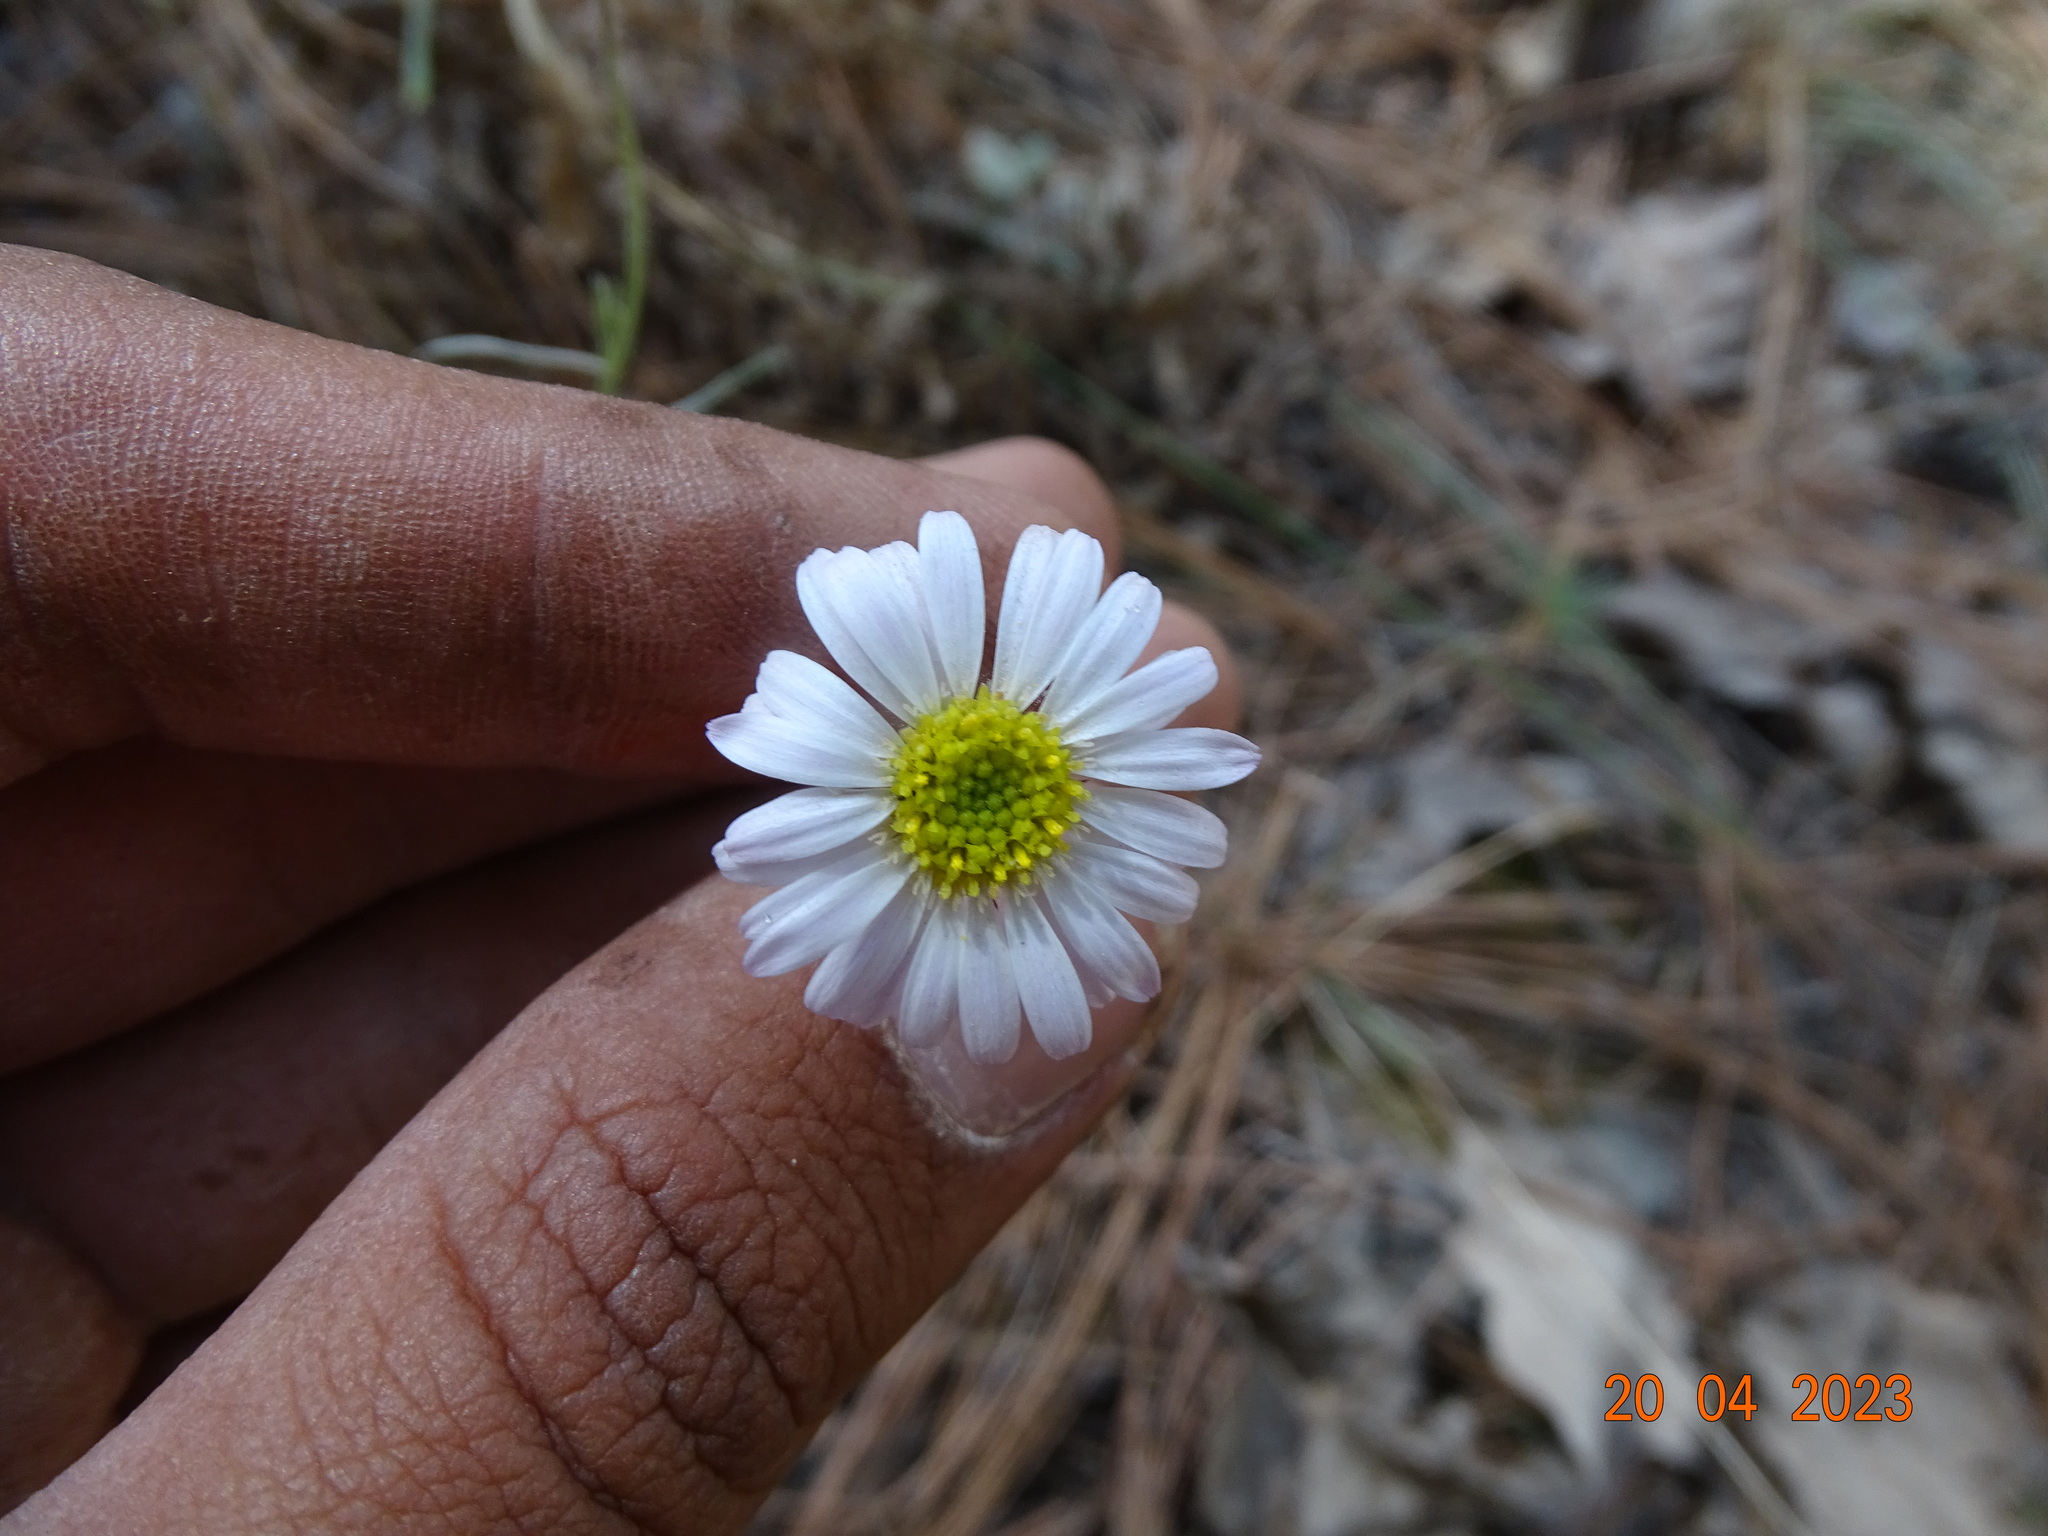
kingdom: Plantae
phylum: Tracheophyta
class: Magnoliopsida
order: Asterales
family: Asteraceae
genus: Erigeron
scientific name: Erigeron lepidopodus
